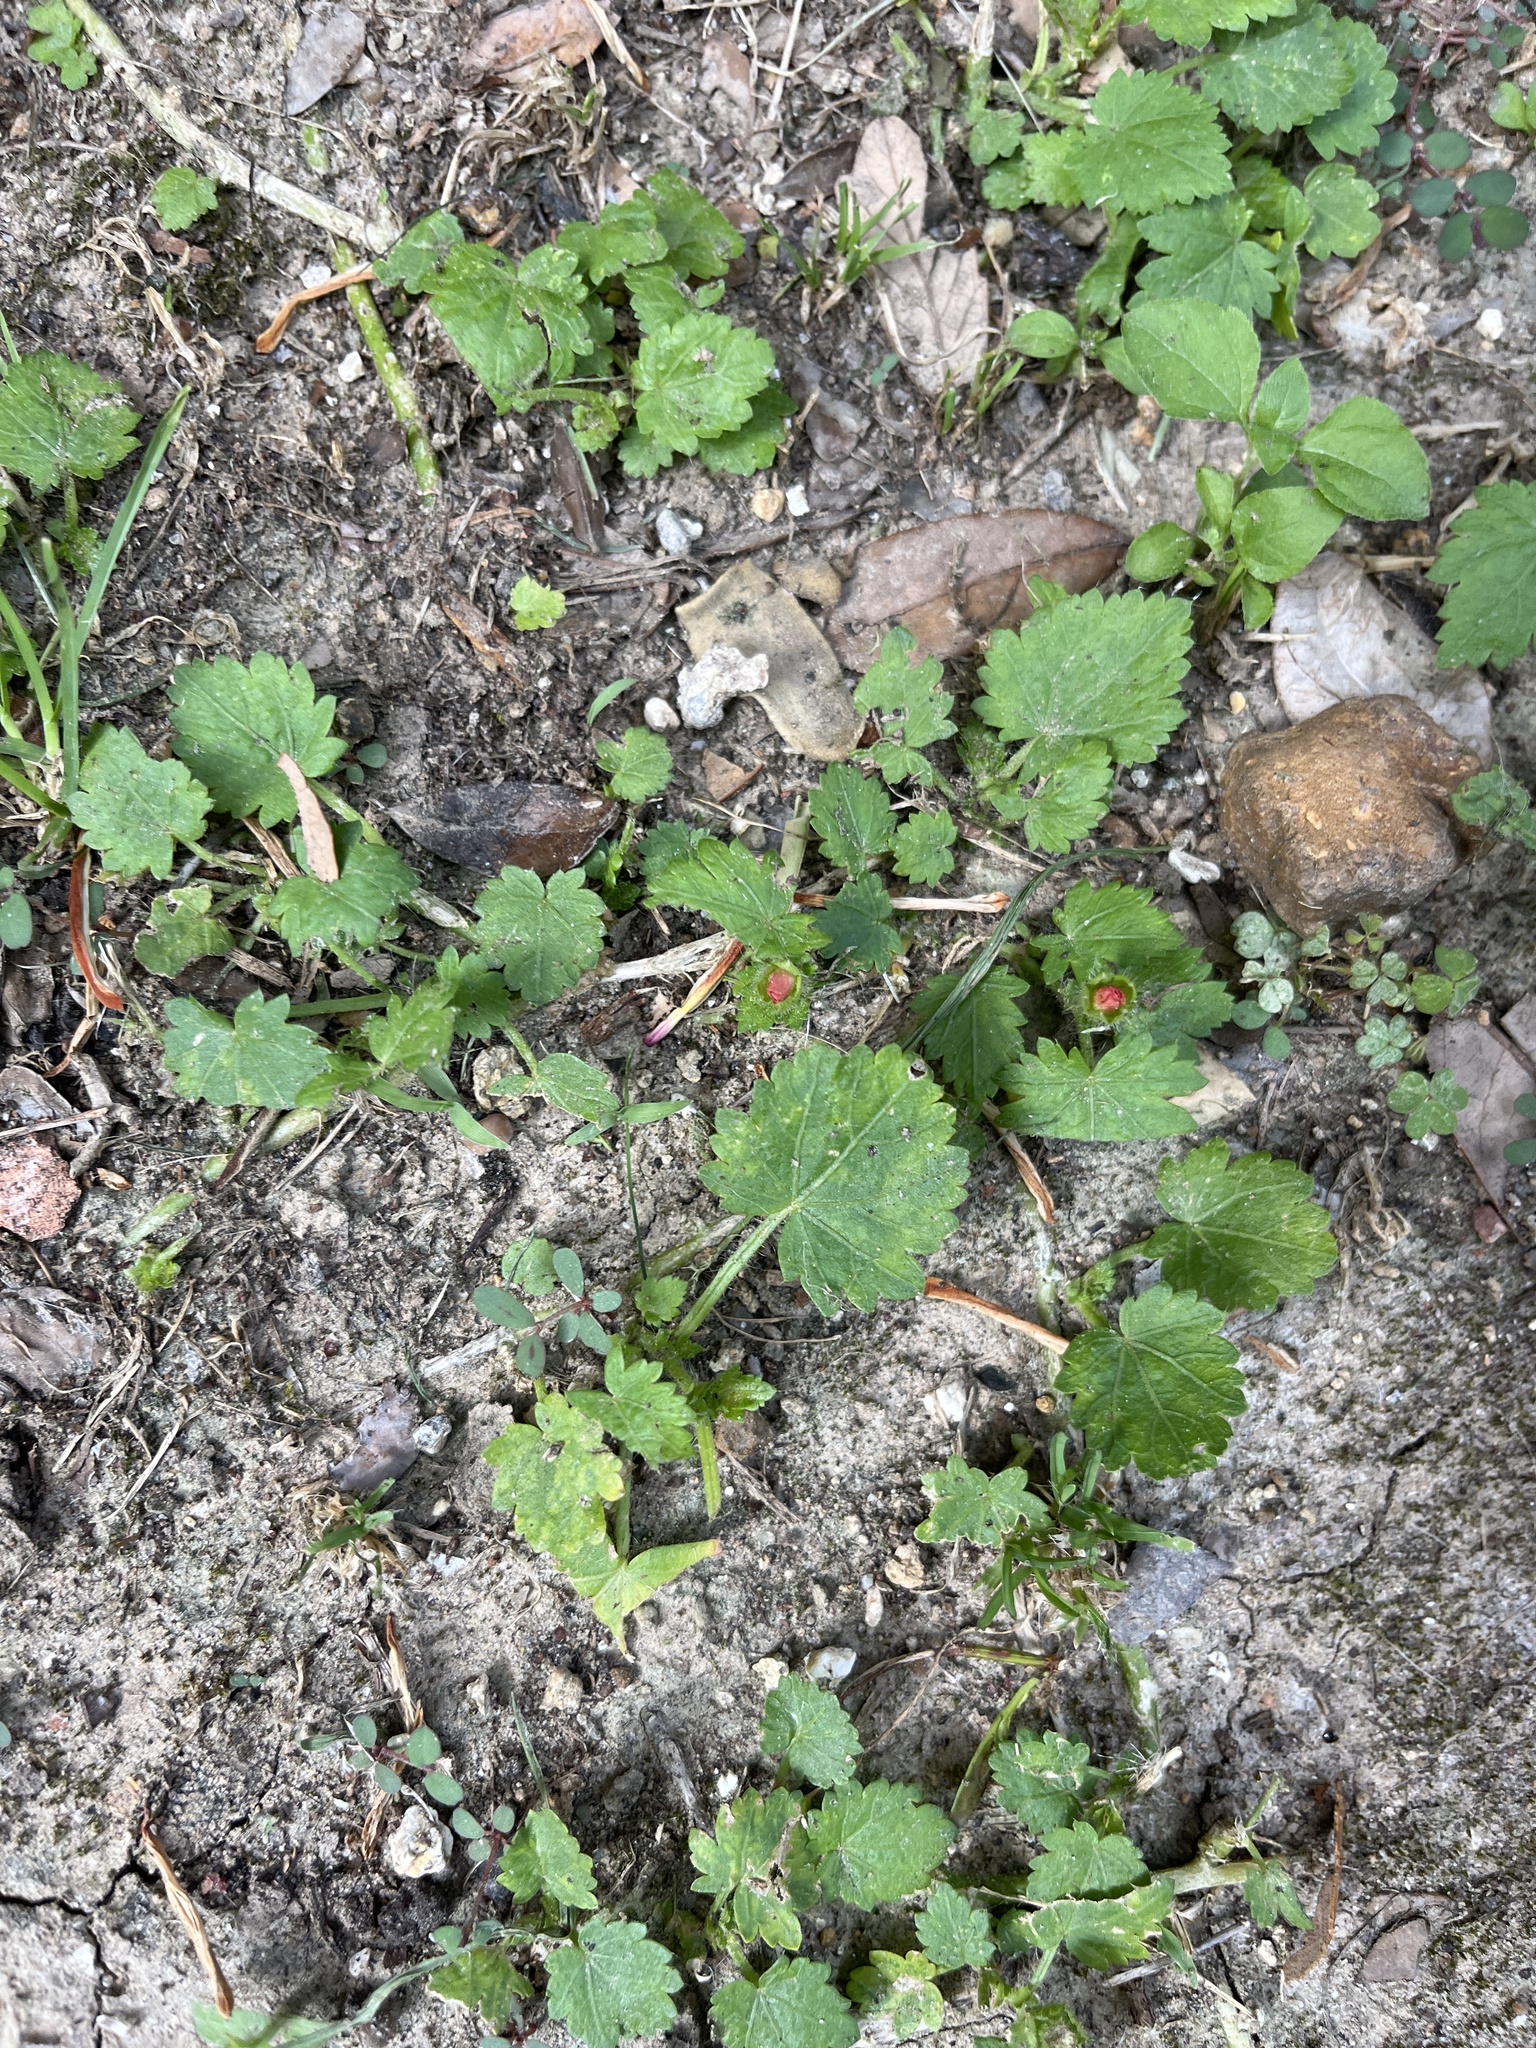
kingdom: Plantae
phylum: Tracheophyta
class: Magnoliopsida
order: Malvales
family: Malvaceae
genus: Modiola
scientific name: Modiola caroliniana
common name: Carolina bristlemallow
